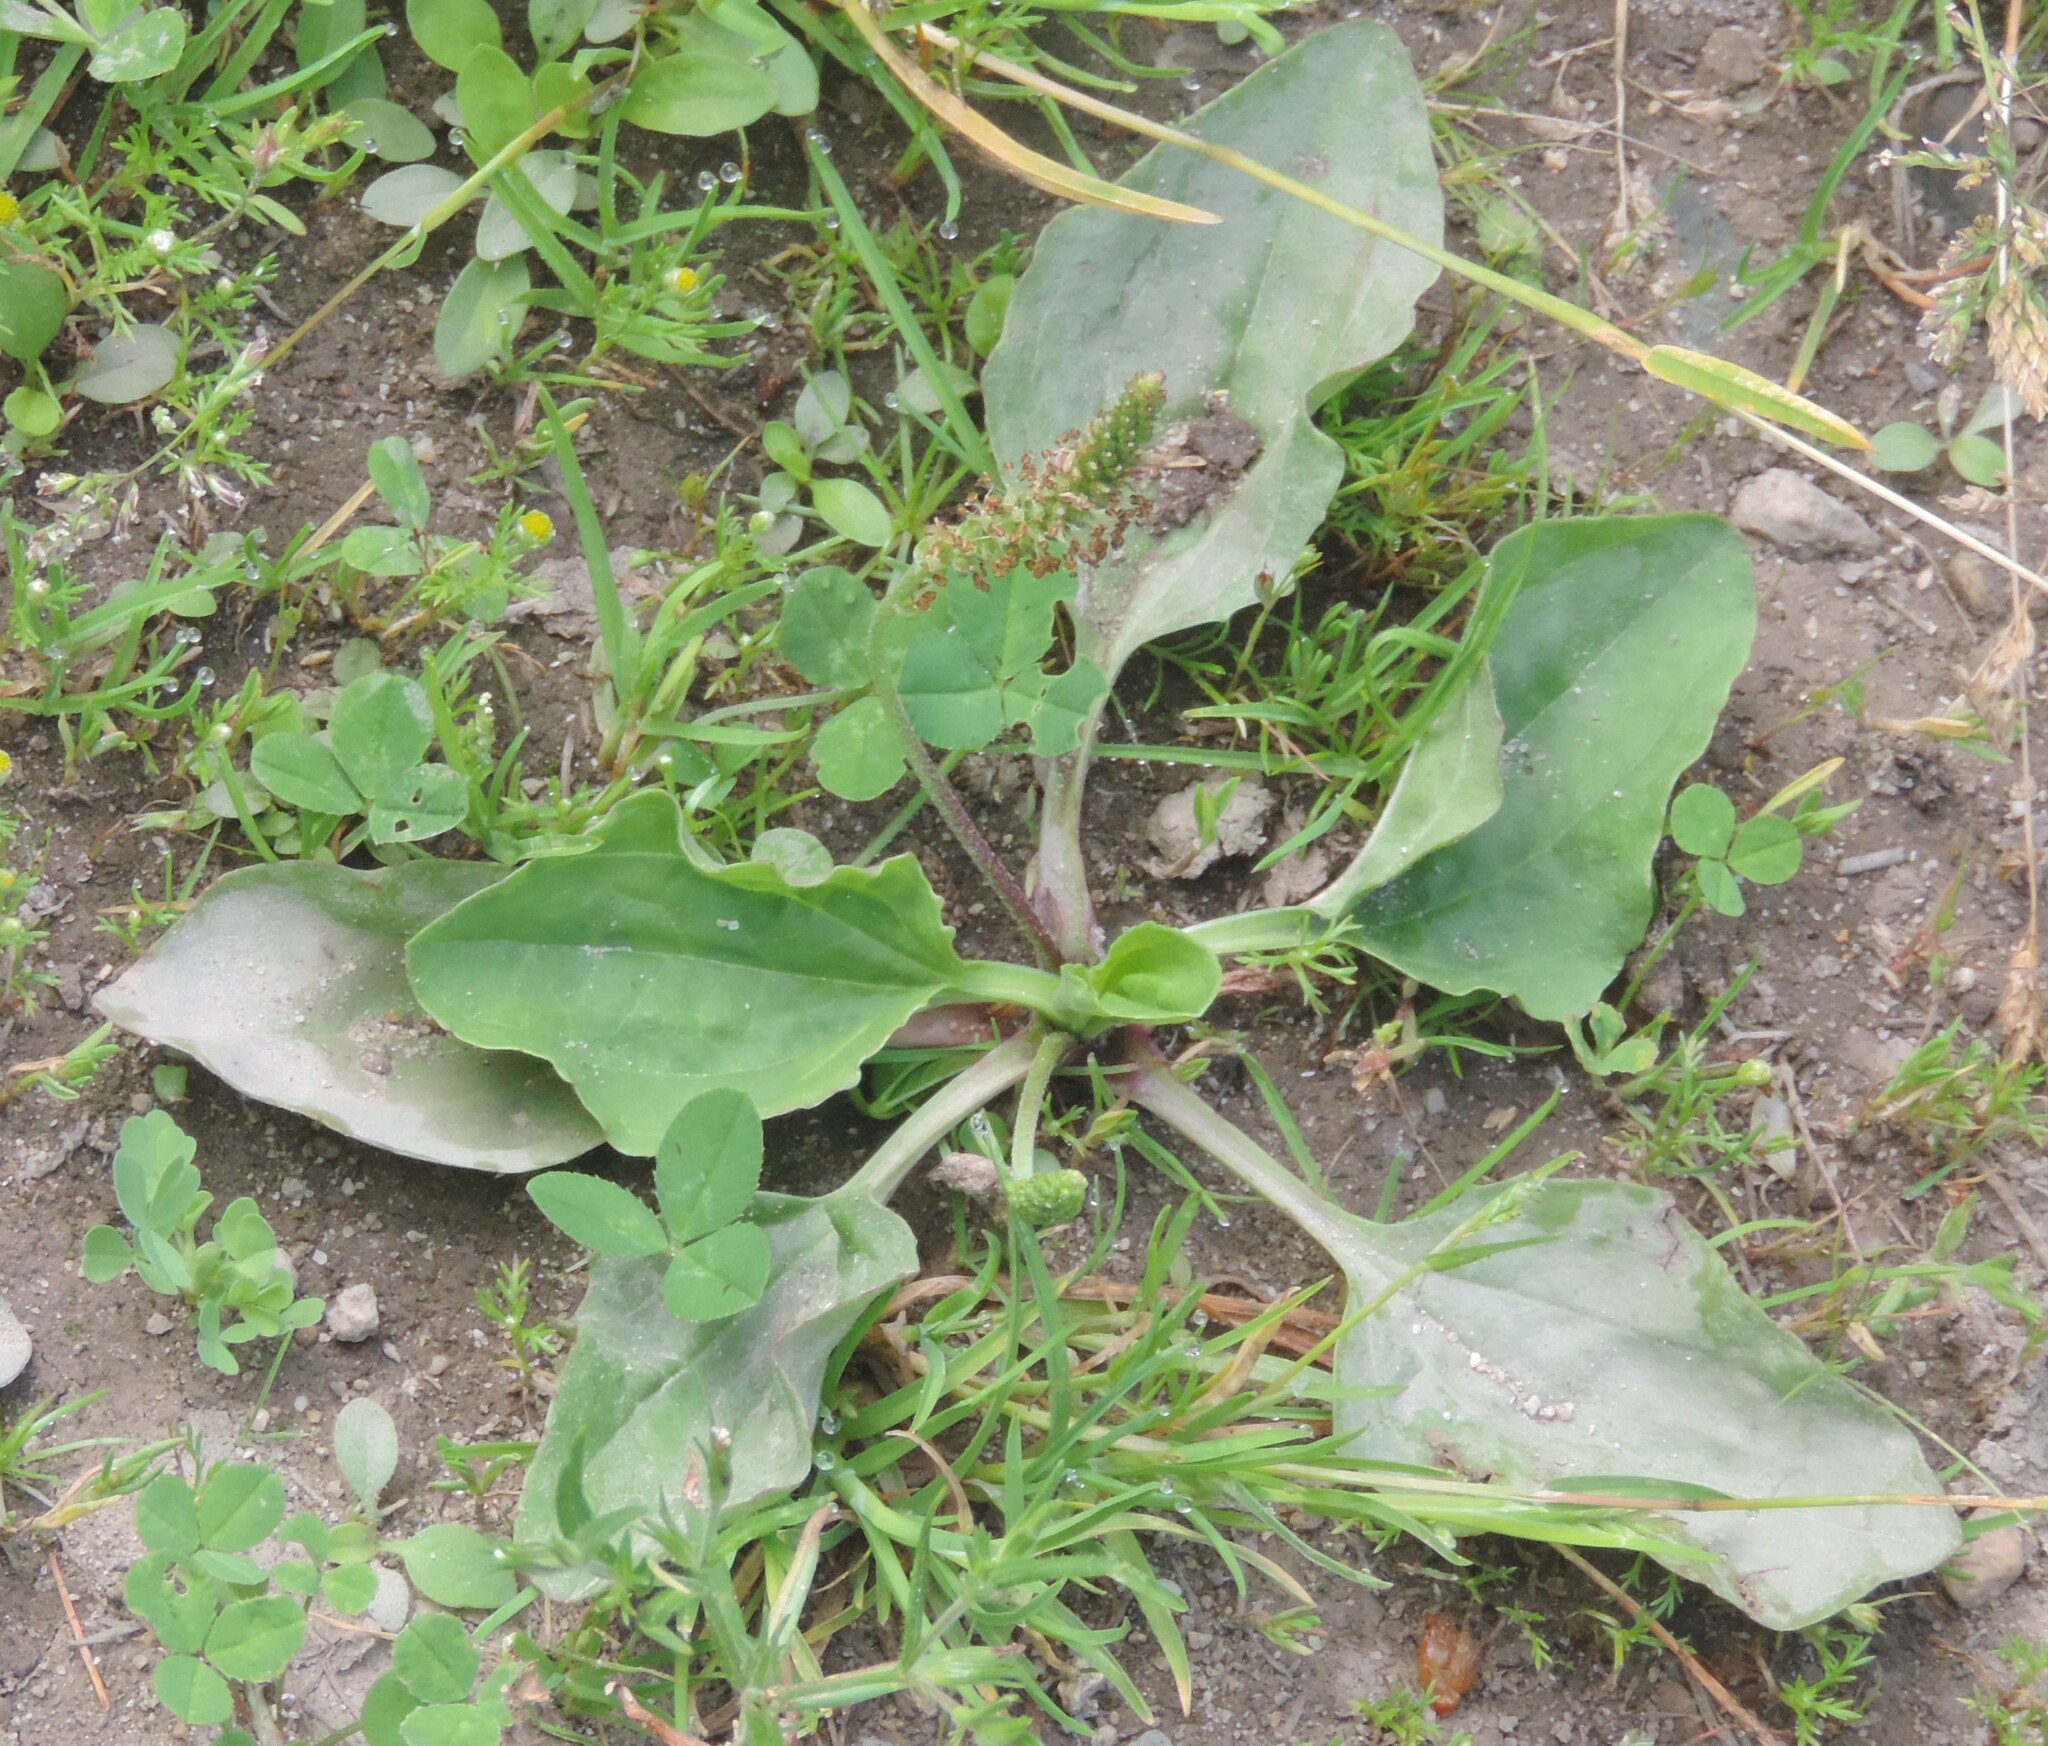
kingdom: Plantae
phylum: Tracheophyta
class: Magnoliopsida
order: Lamiales
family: Plantaginaceae
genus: Plantago
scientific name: Plantago major
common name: Common plantain
